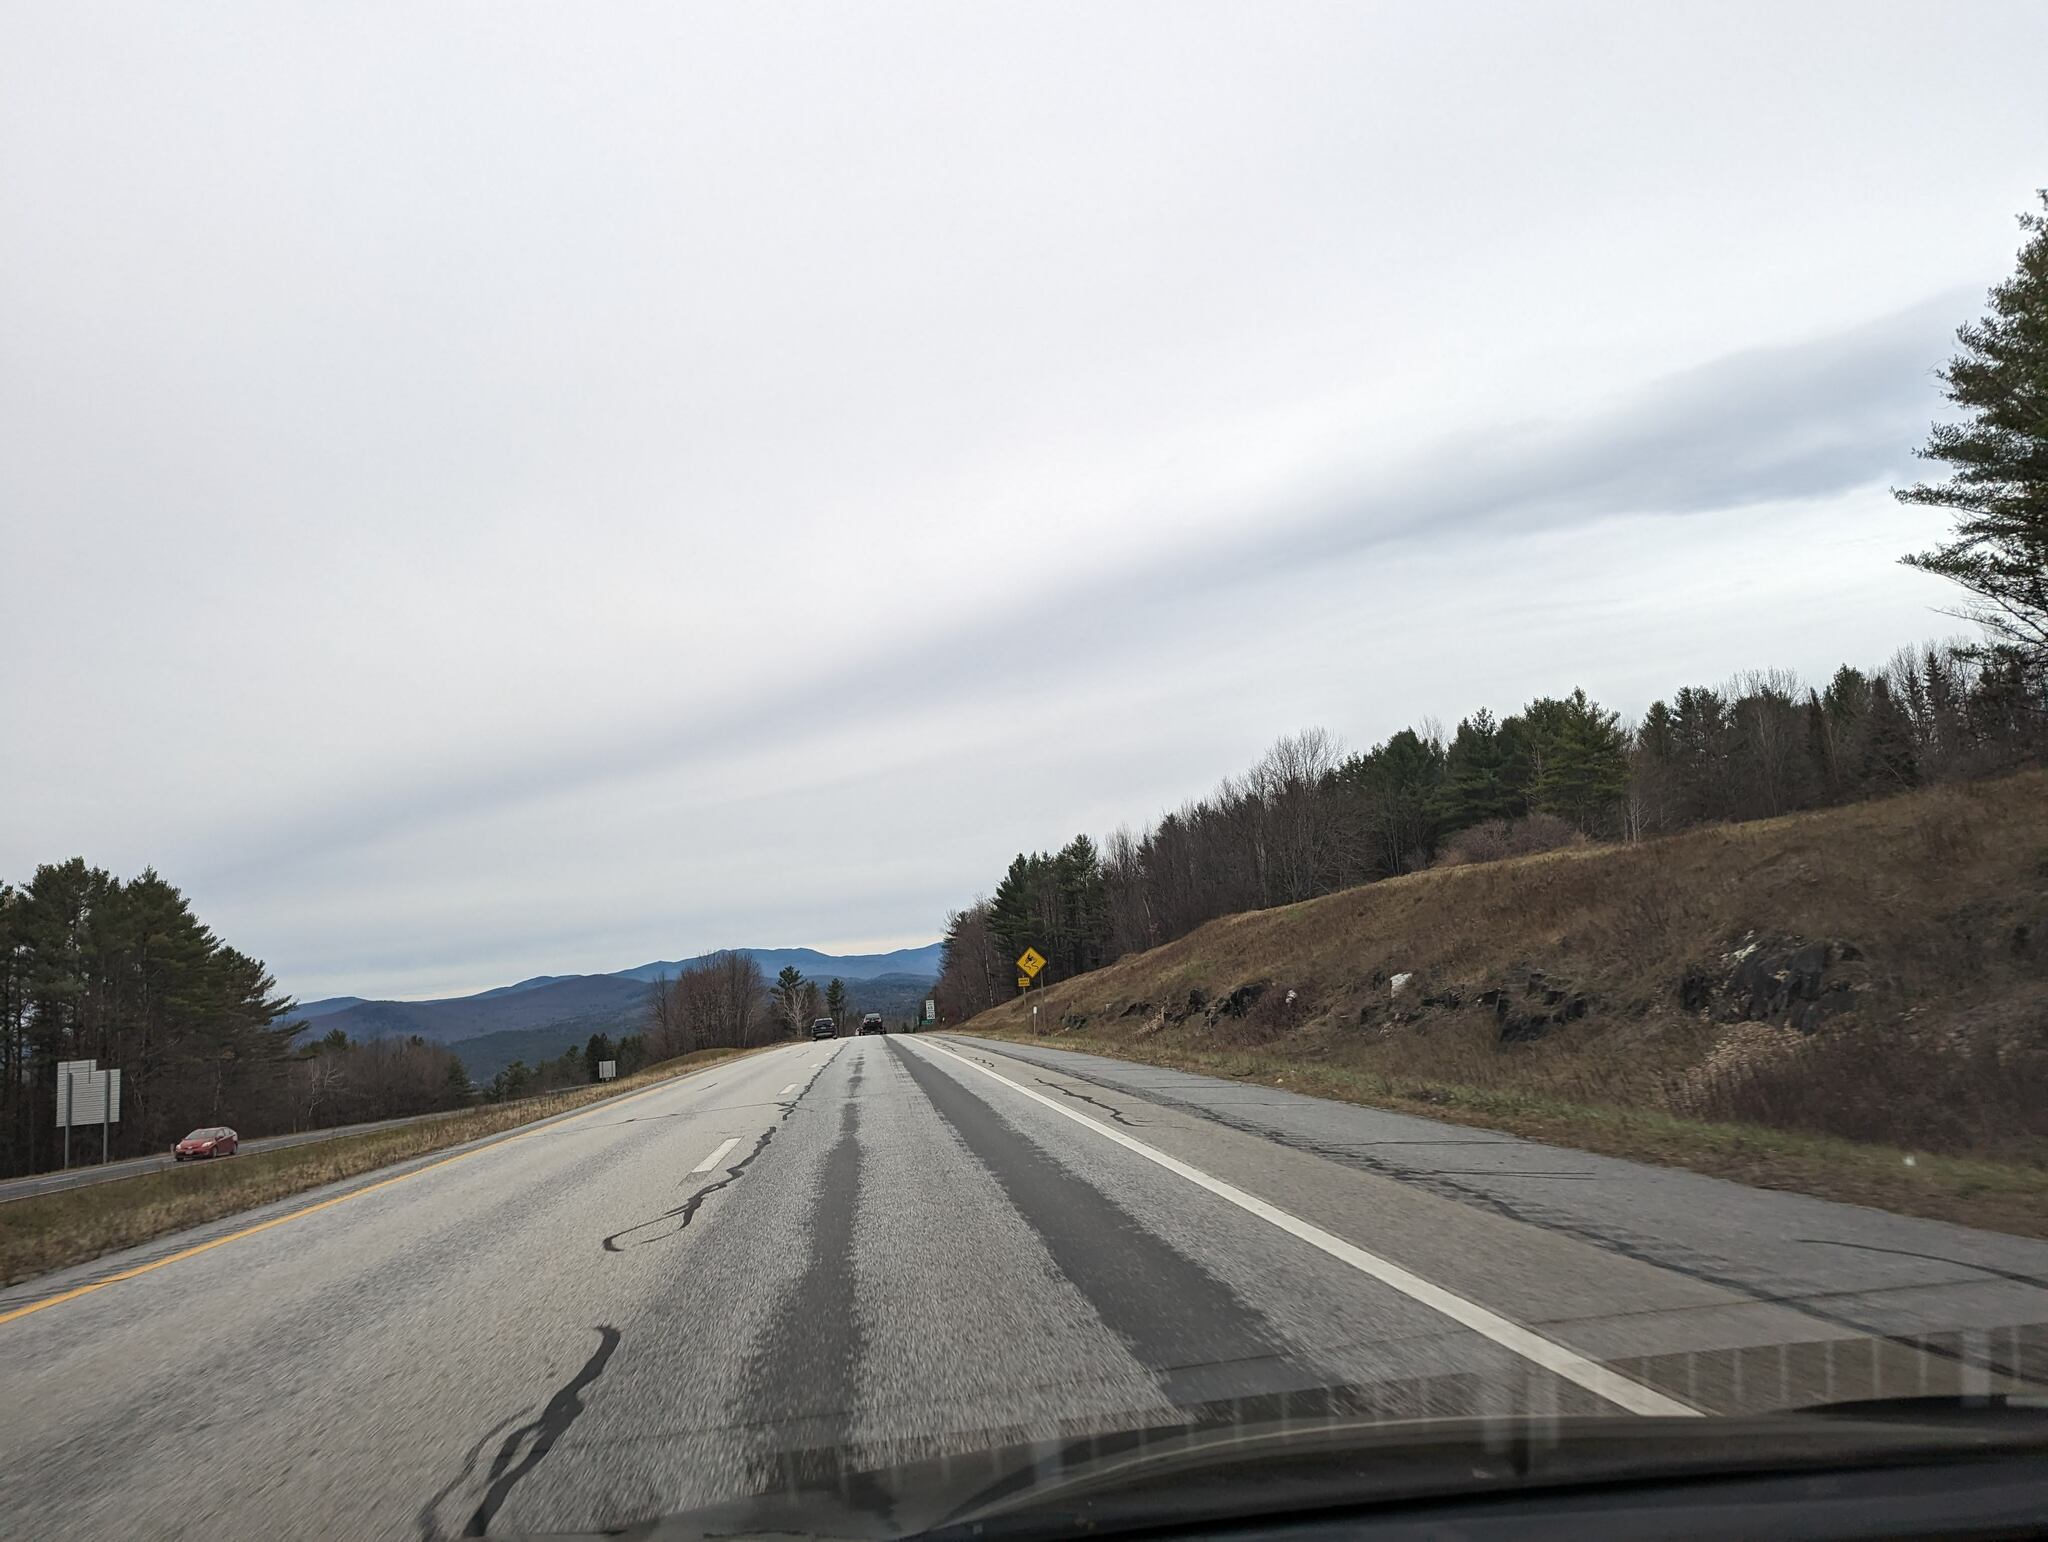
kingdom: Plantae
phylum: Tracheophyta
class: Pinopsida
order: Pinales
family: Pinaceae
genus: Pinus
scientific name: Pinus strobus
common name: Weymouth pine
